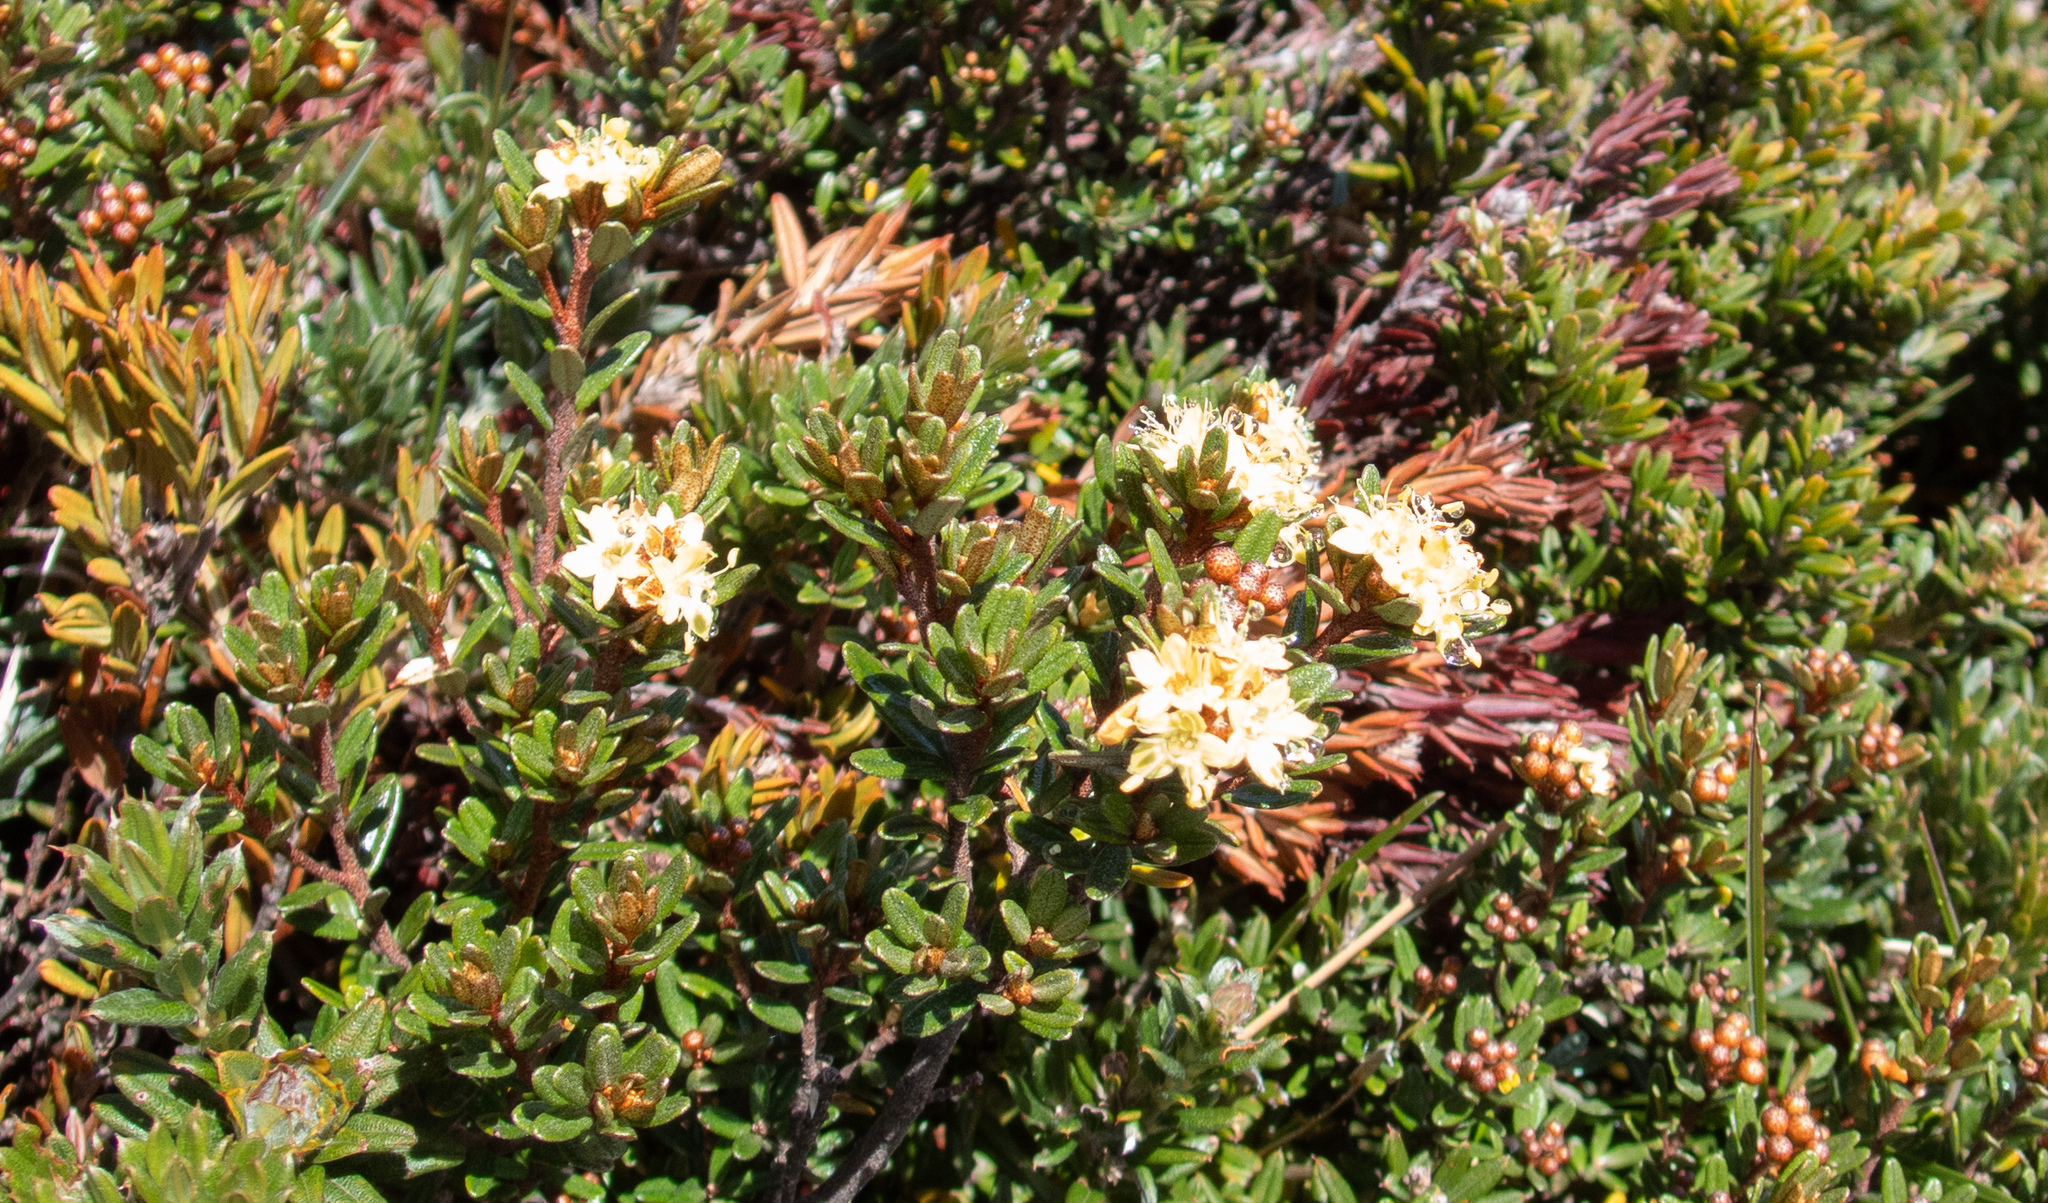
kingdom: Plantae
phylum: Tracheophyta
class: Magnoliopsida
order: Sapindales
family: Rutaceae
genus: Phebalium
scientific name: Phebalium squamulosum
